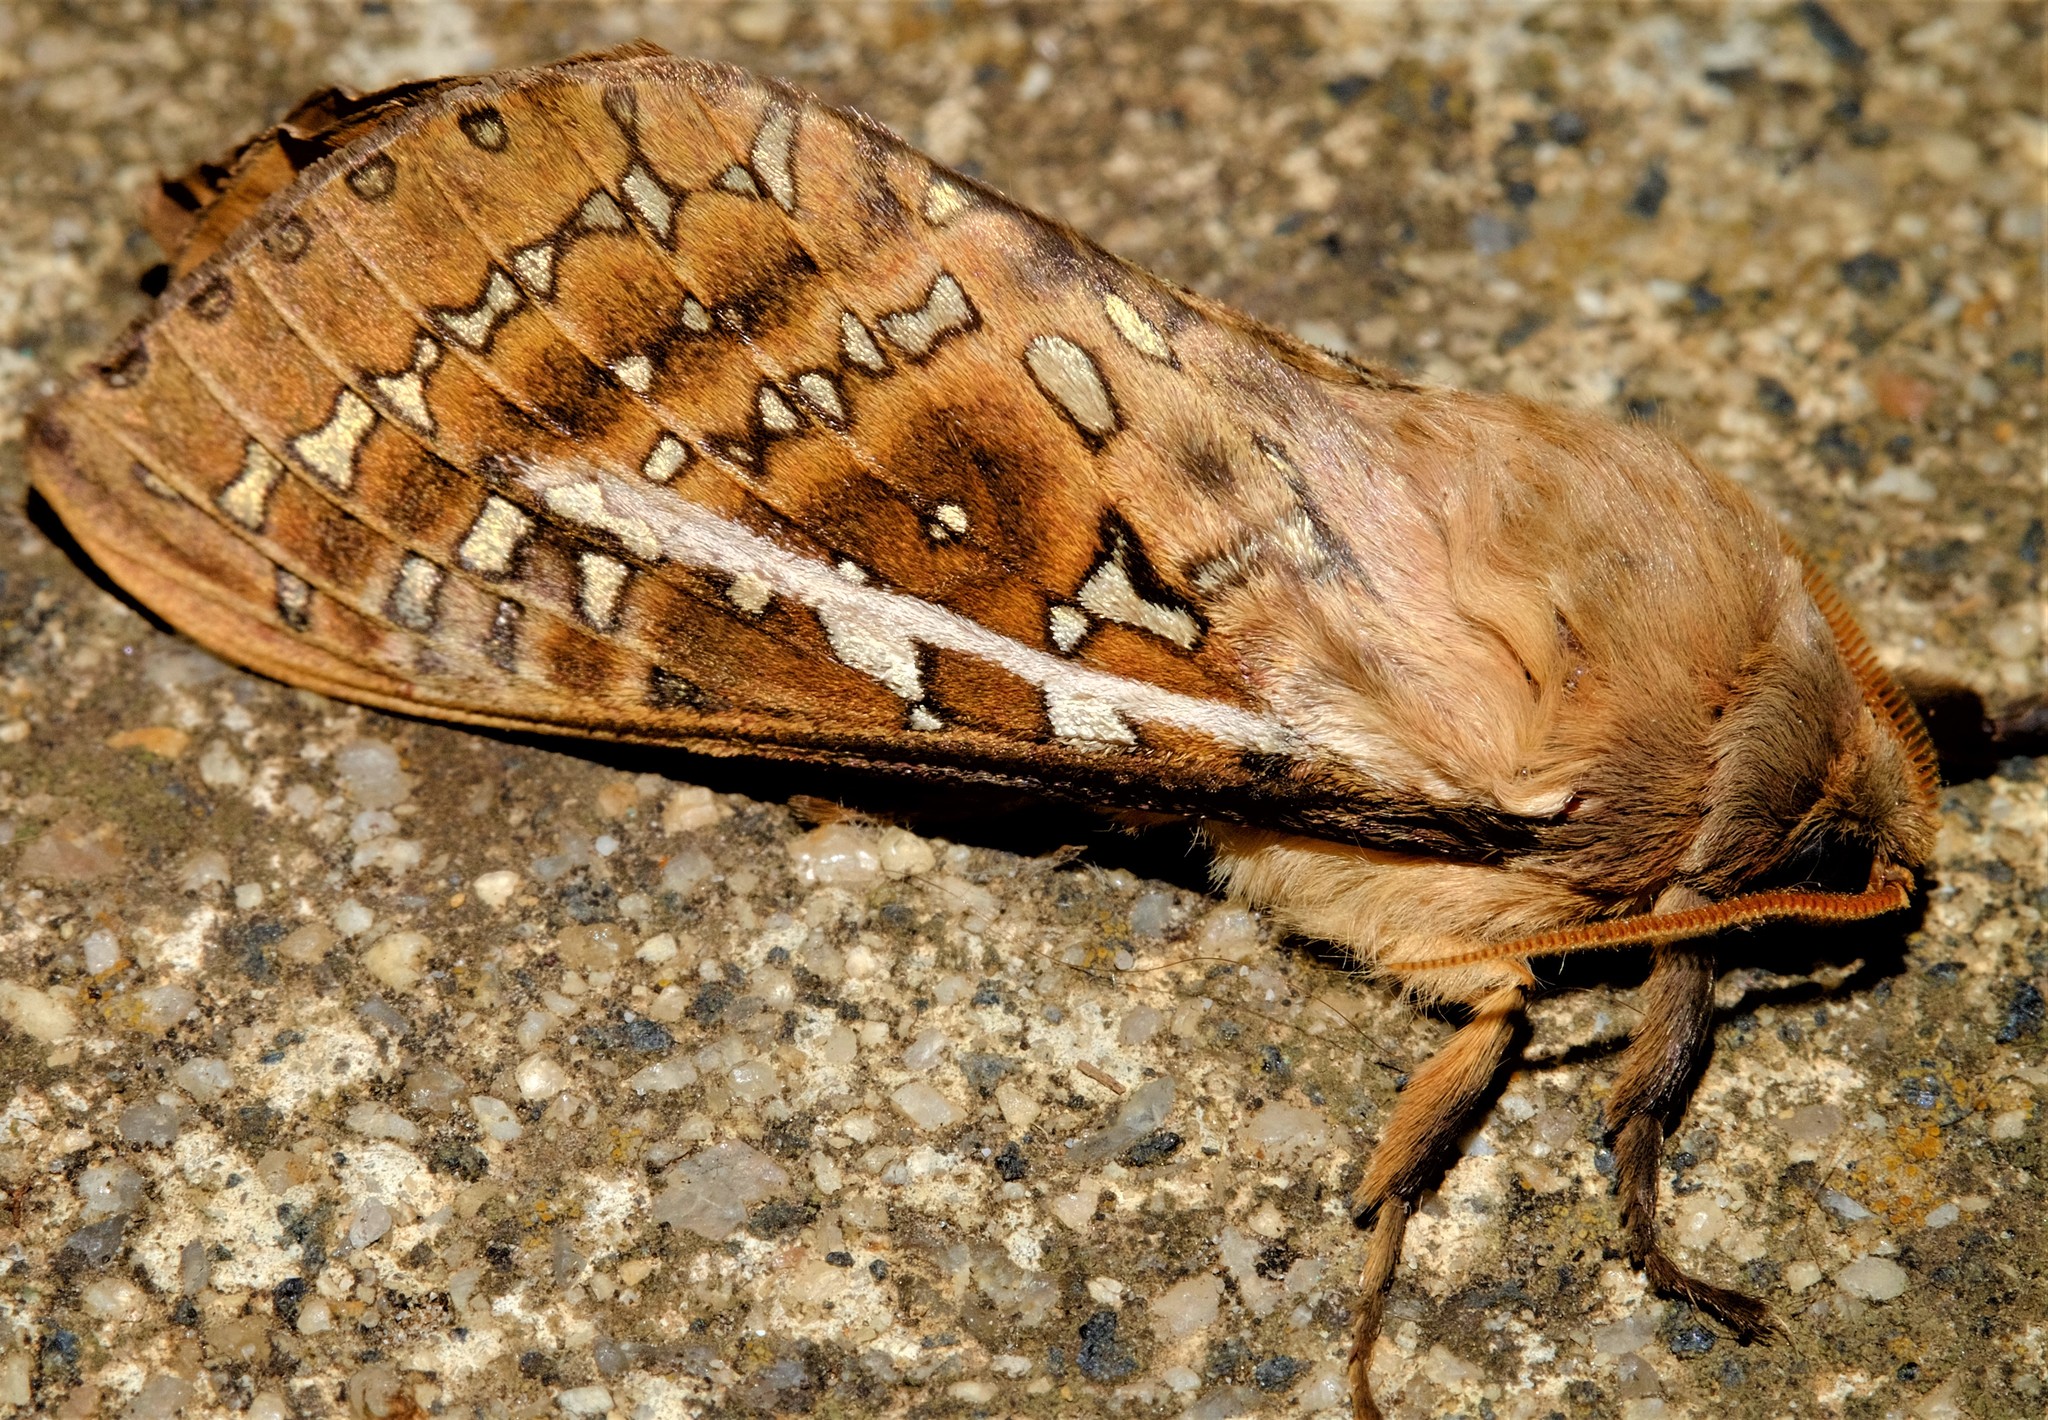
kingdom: Animalia
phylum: Arthropoda
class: Insecta
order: Lepidoptera
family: Hepialidae
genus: Oxycanus
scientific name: Oxycanus australis
